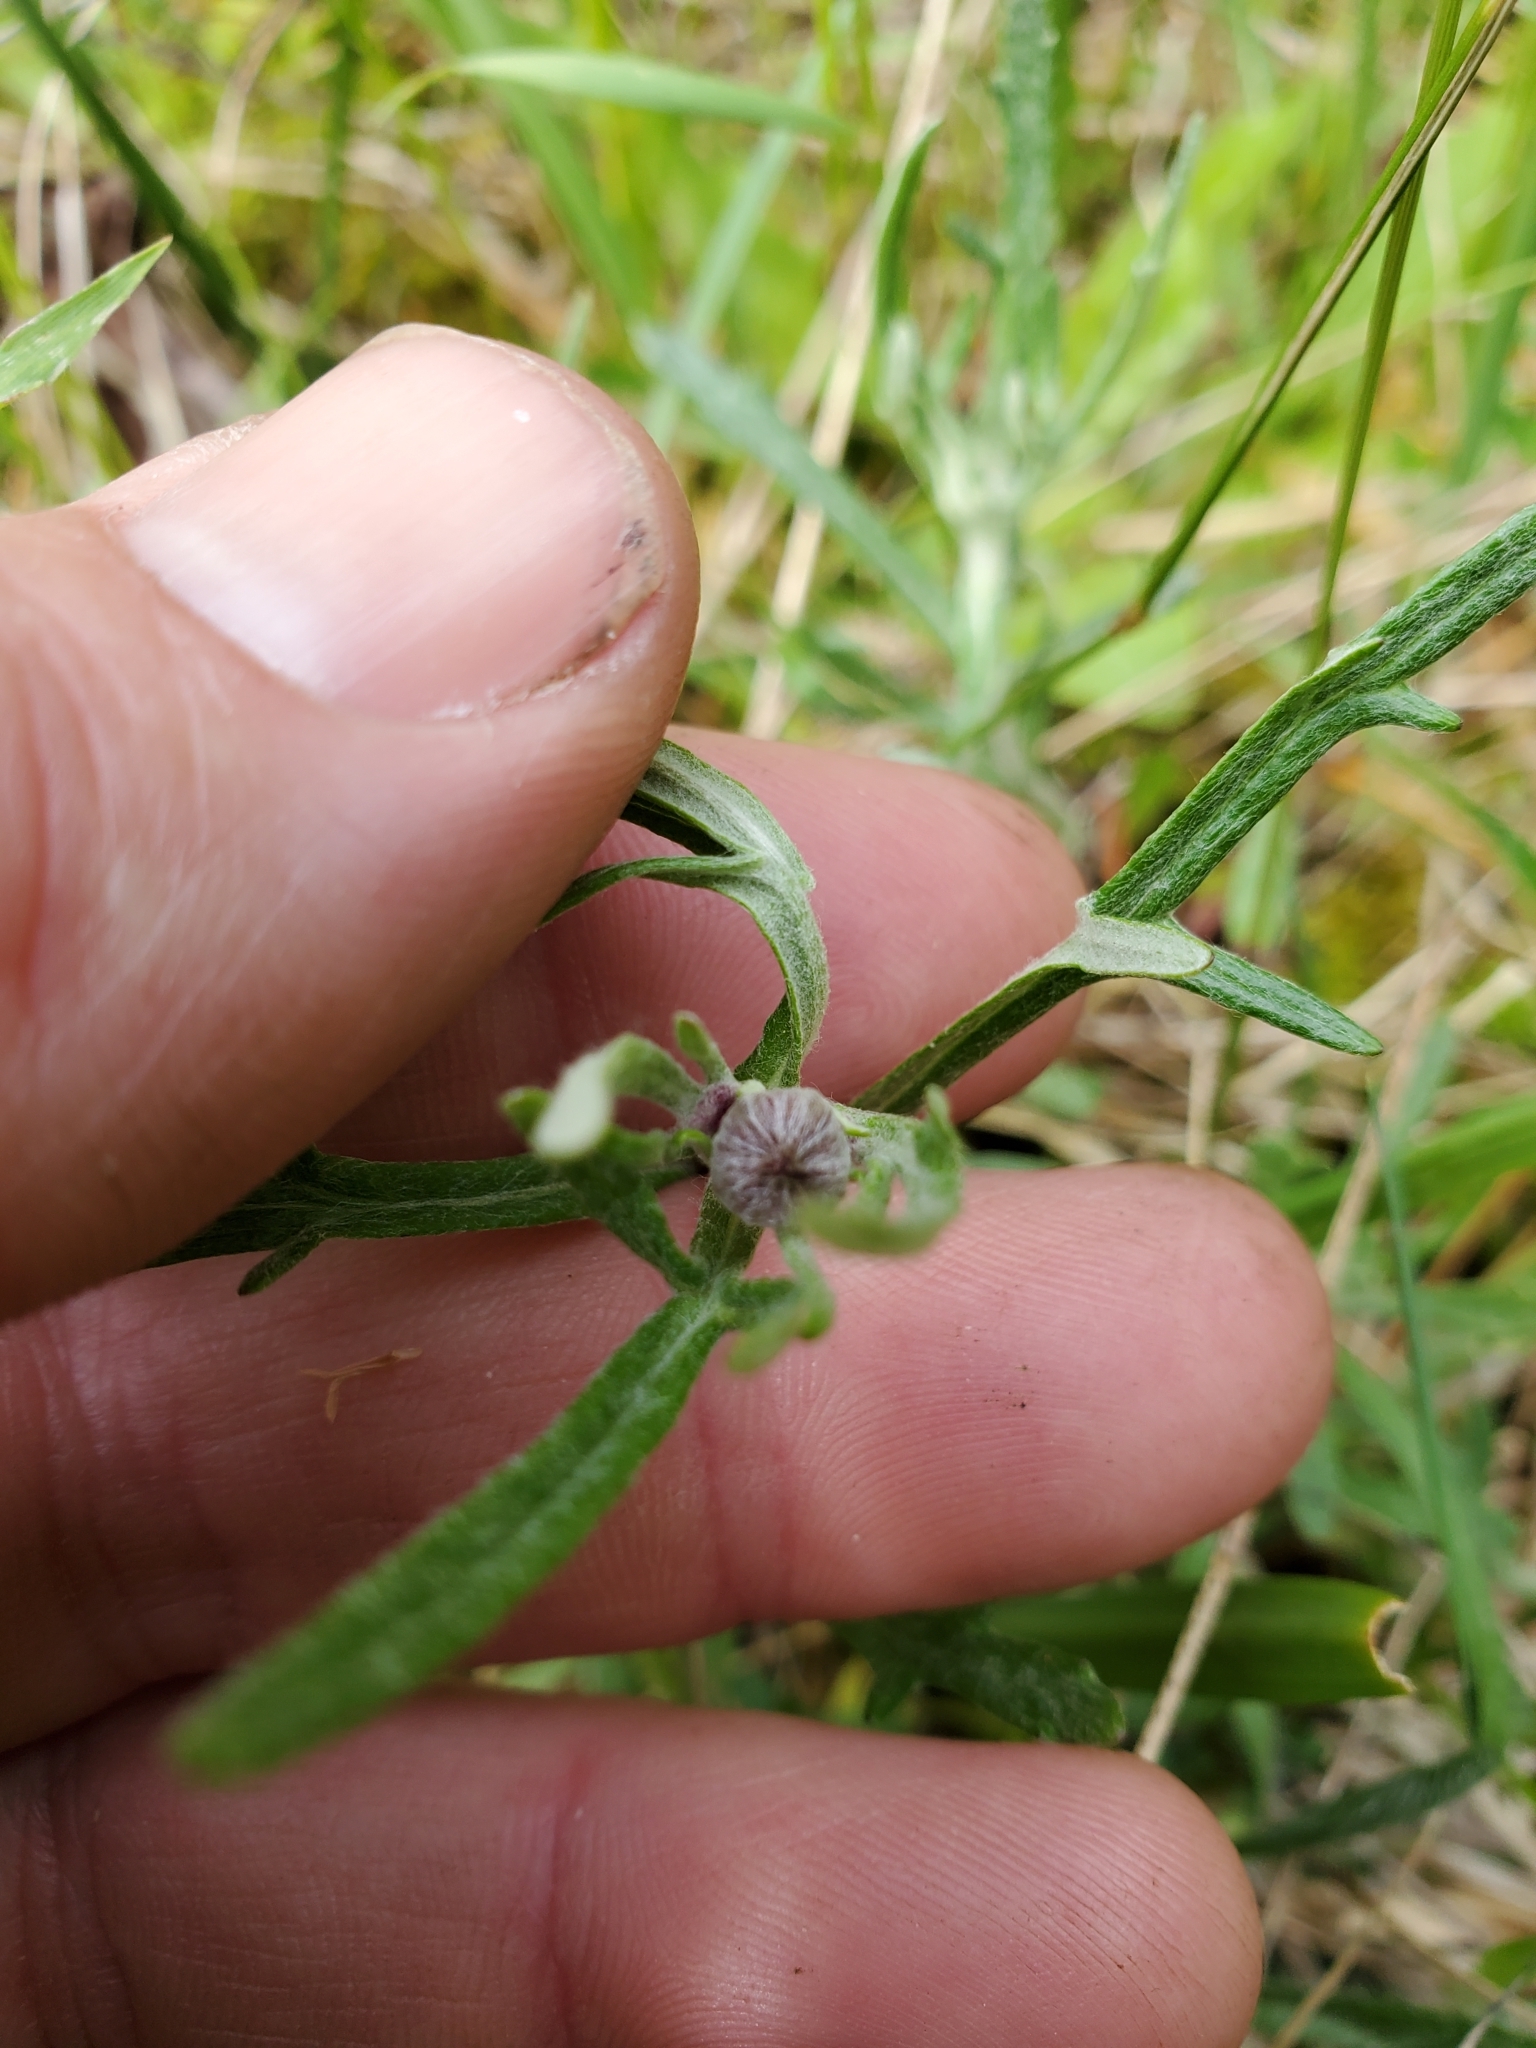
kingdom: Plantae
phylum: Tracheophyta
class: Magnoliopsida
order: Asterales
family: Asteraceae
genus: Eriophyllum
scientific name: Eriophyllum lanatum
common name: Common woolly-sunflower
